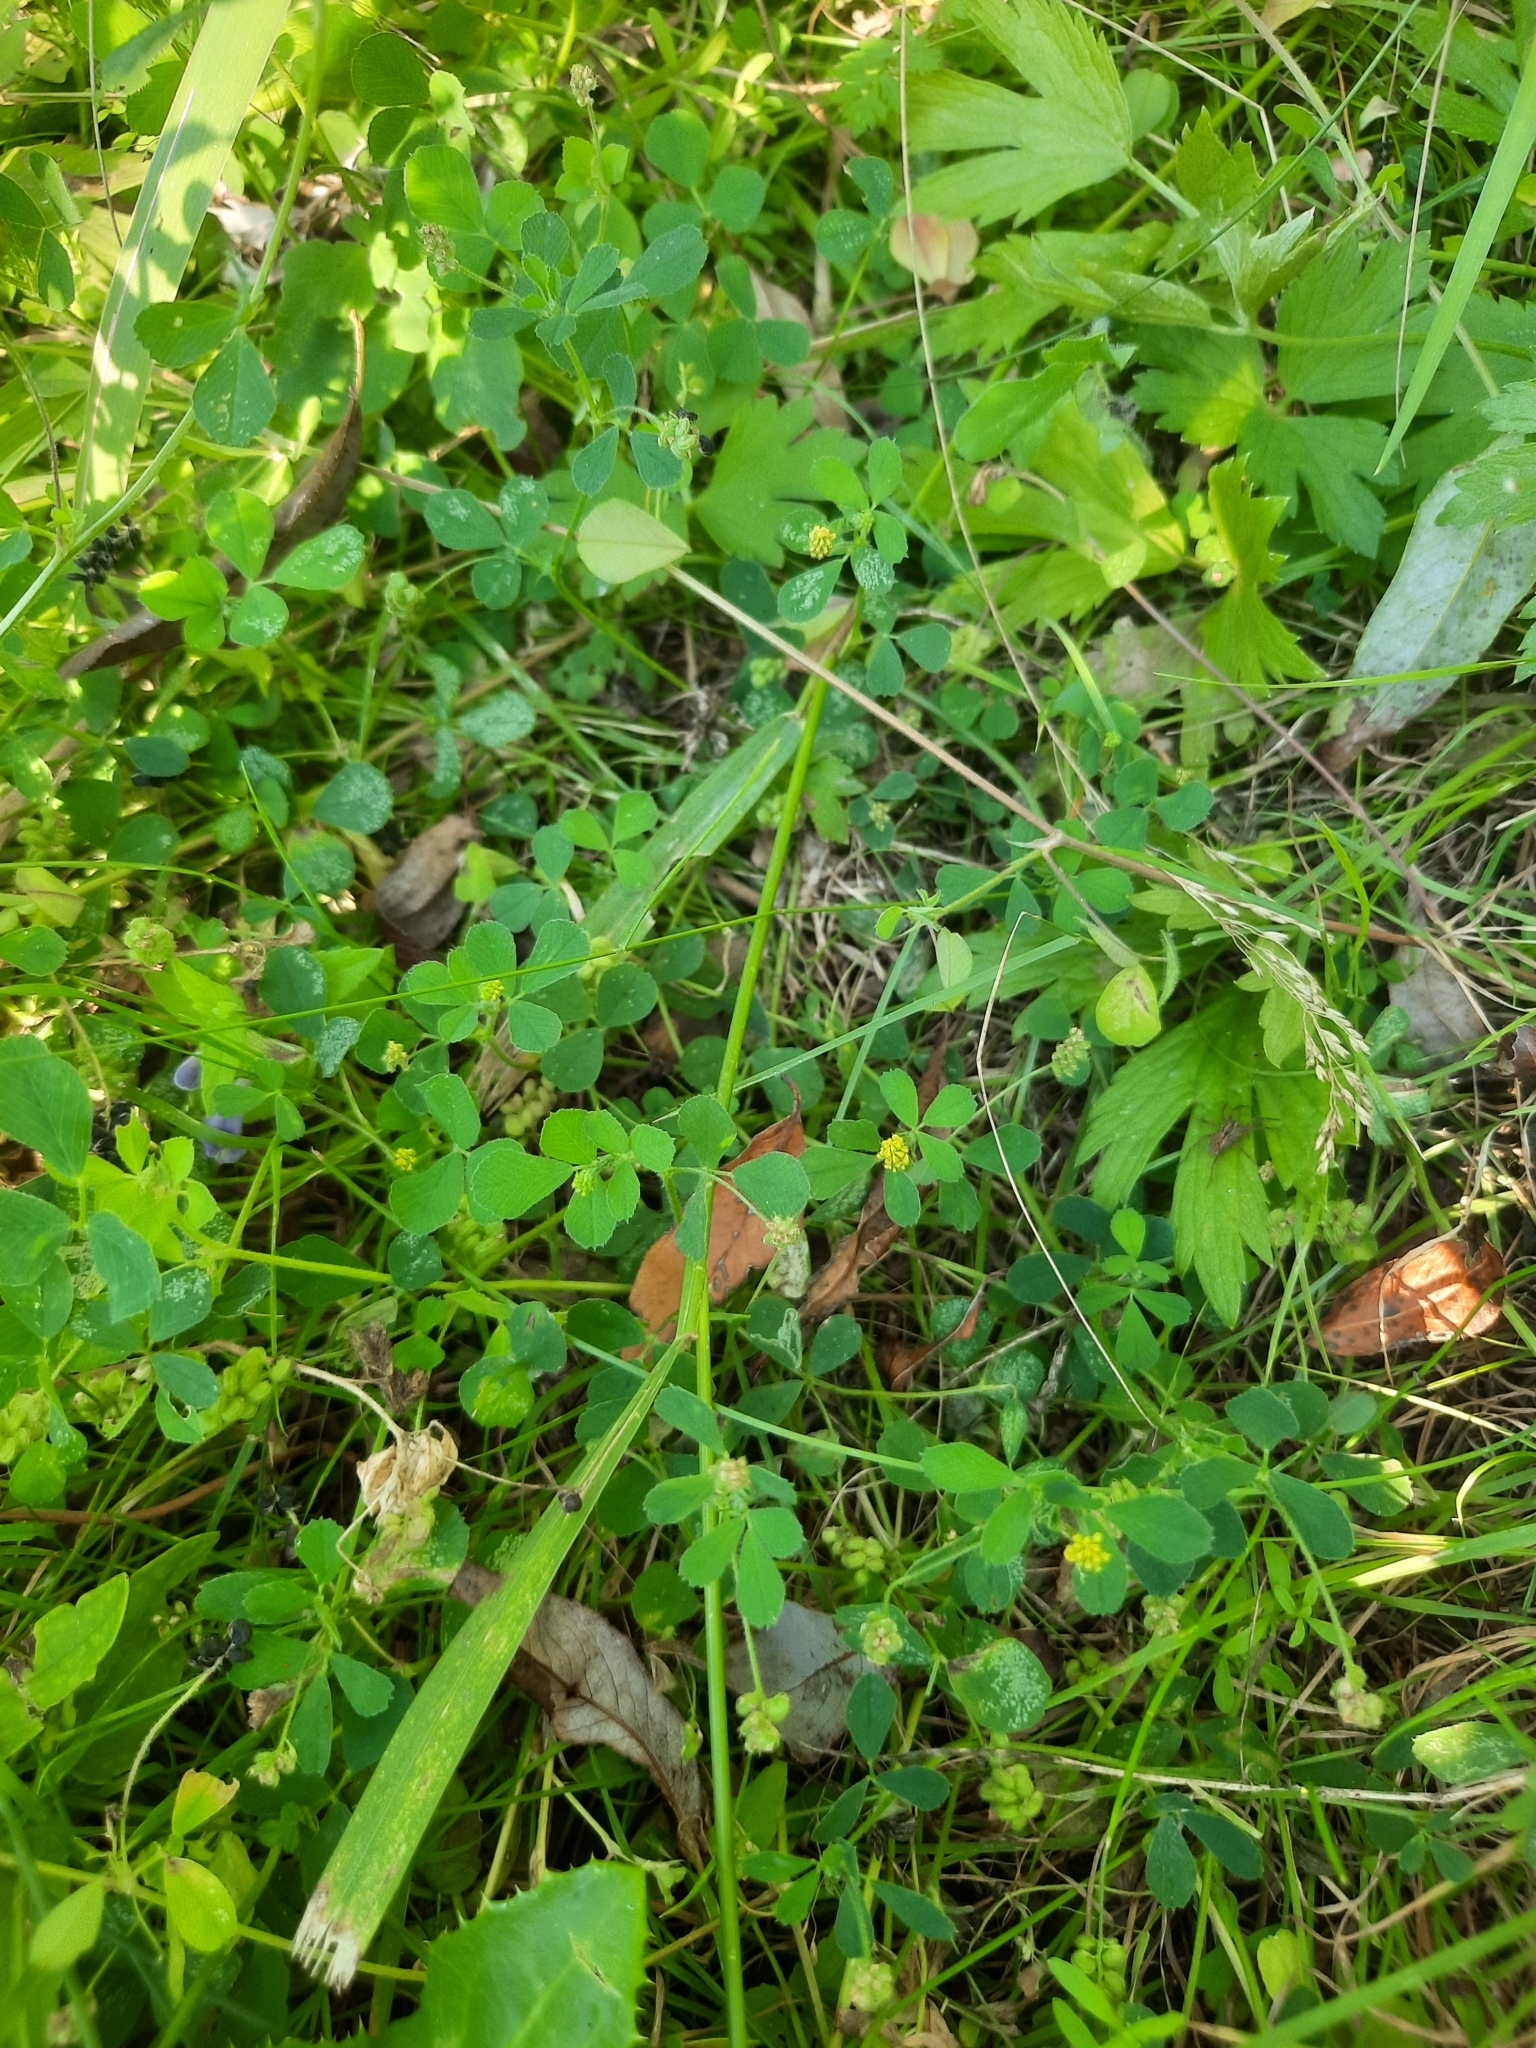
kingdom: Plantae
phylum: Tracheophyta
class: Magnoliopsida
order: Fabales
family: Fabaceae
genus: Medicago
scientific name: Medicago lupulina
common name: Black medick
